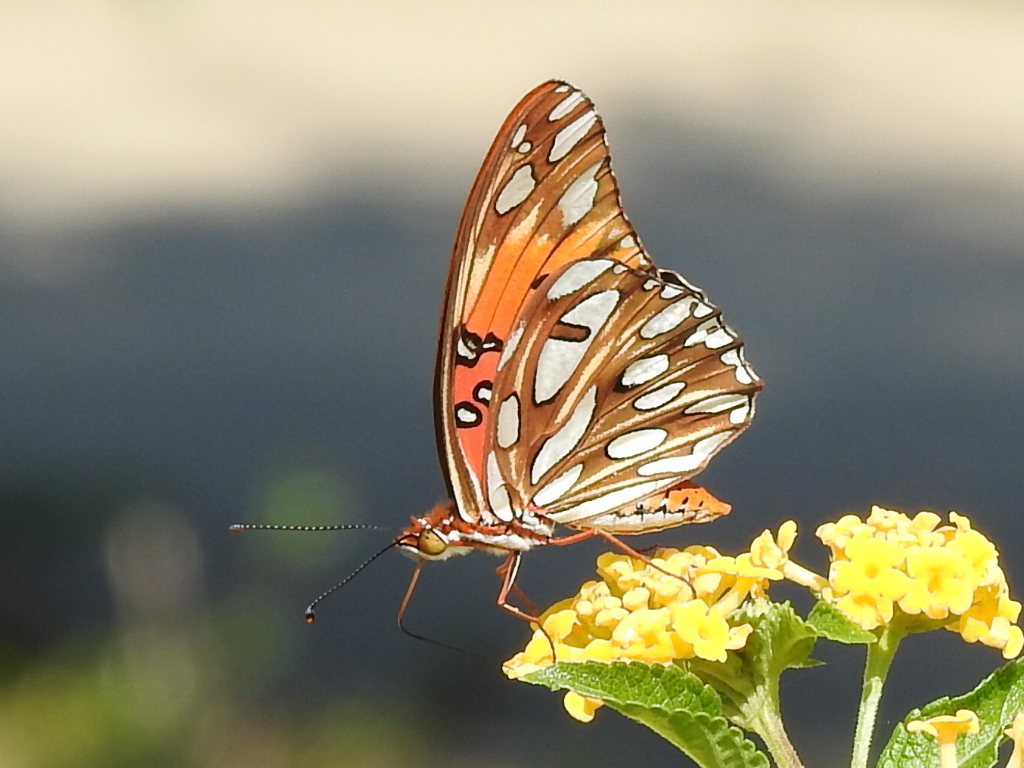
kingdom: Animalia
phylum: Arthropoda
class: Insecta
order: Lepidoptera
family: Nymphalidae
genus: Dione
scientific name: Dione vanillae
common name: Gulf fritillary
